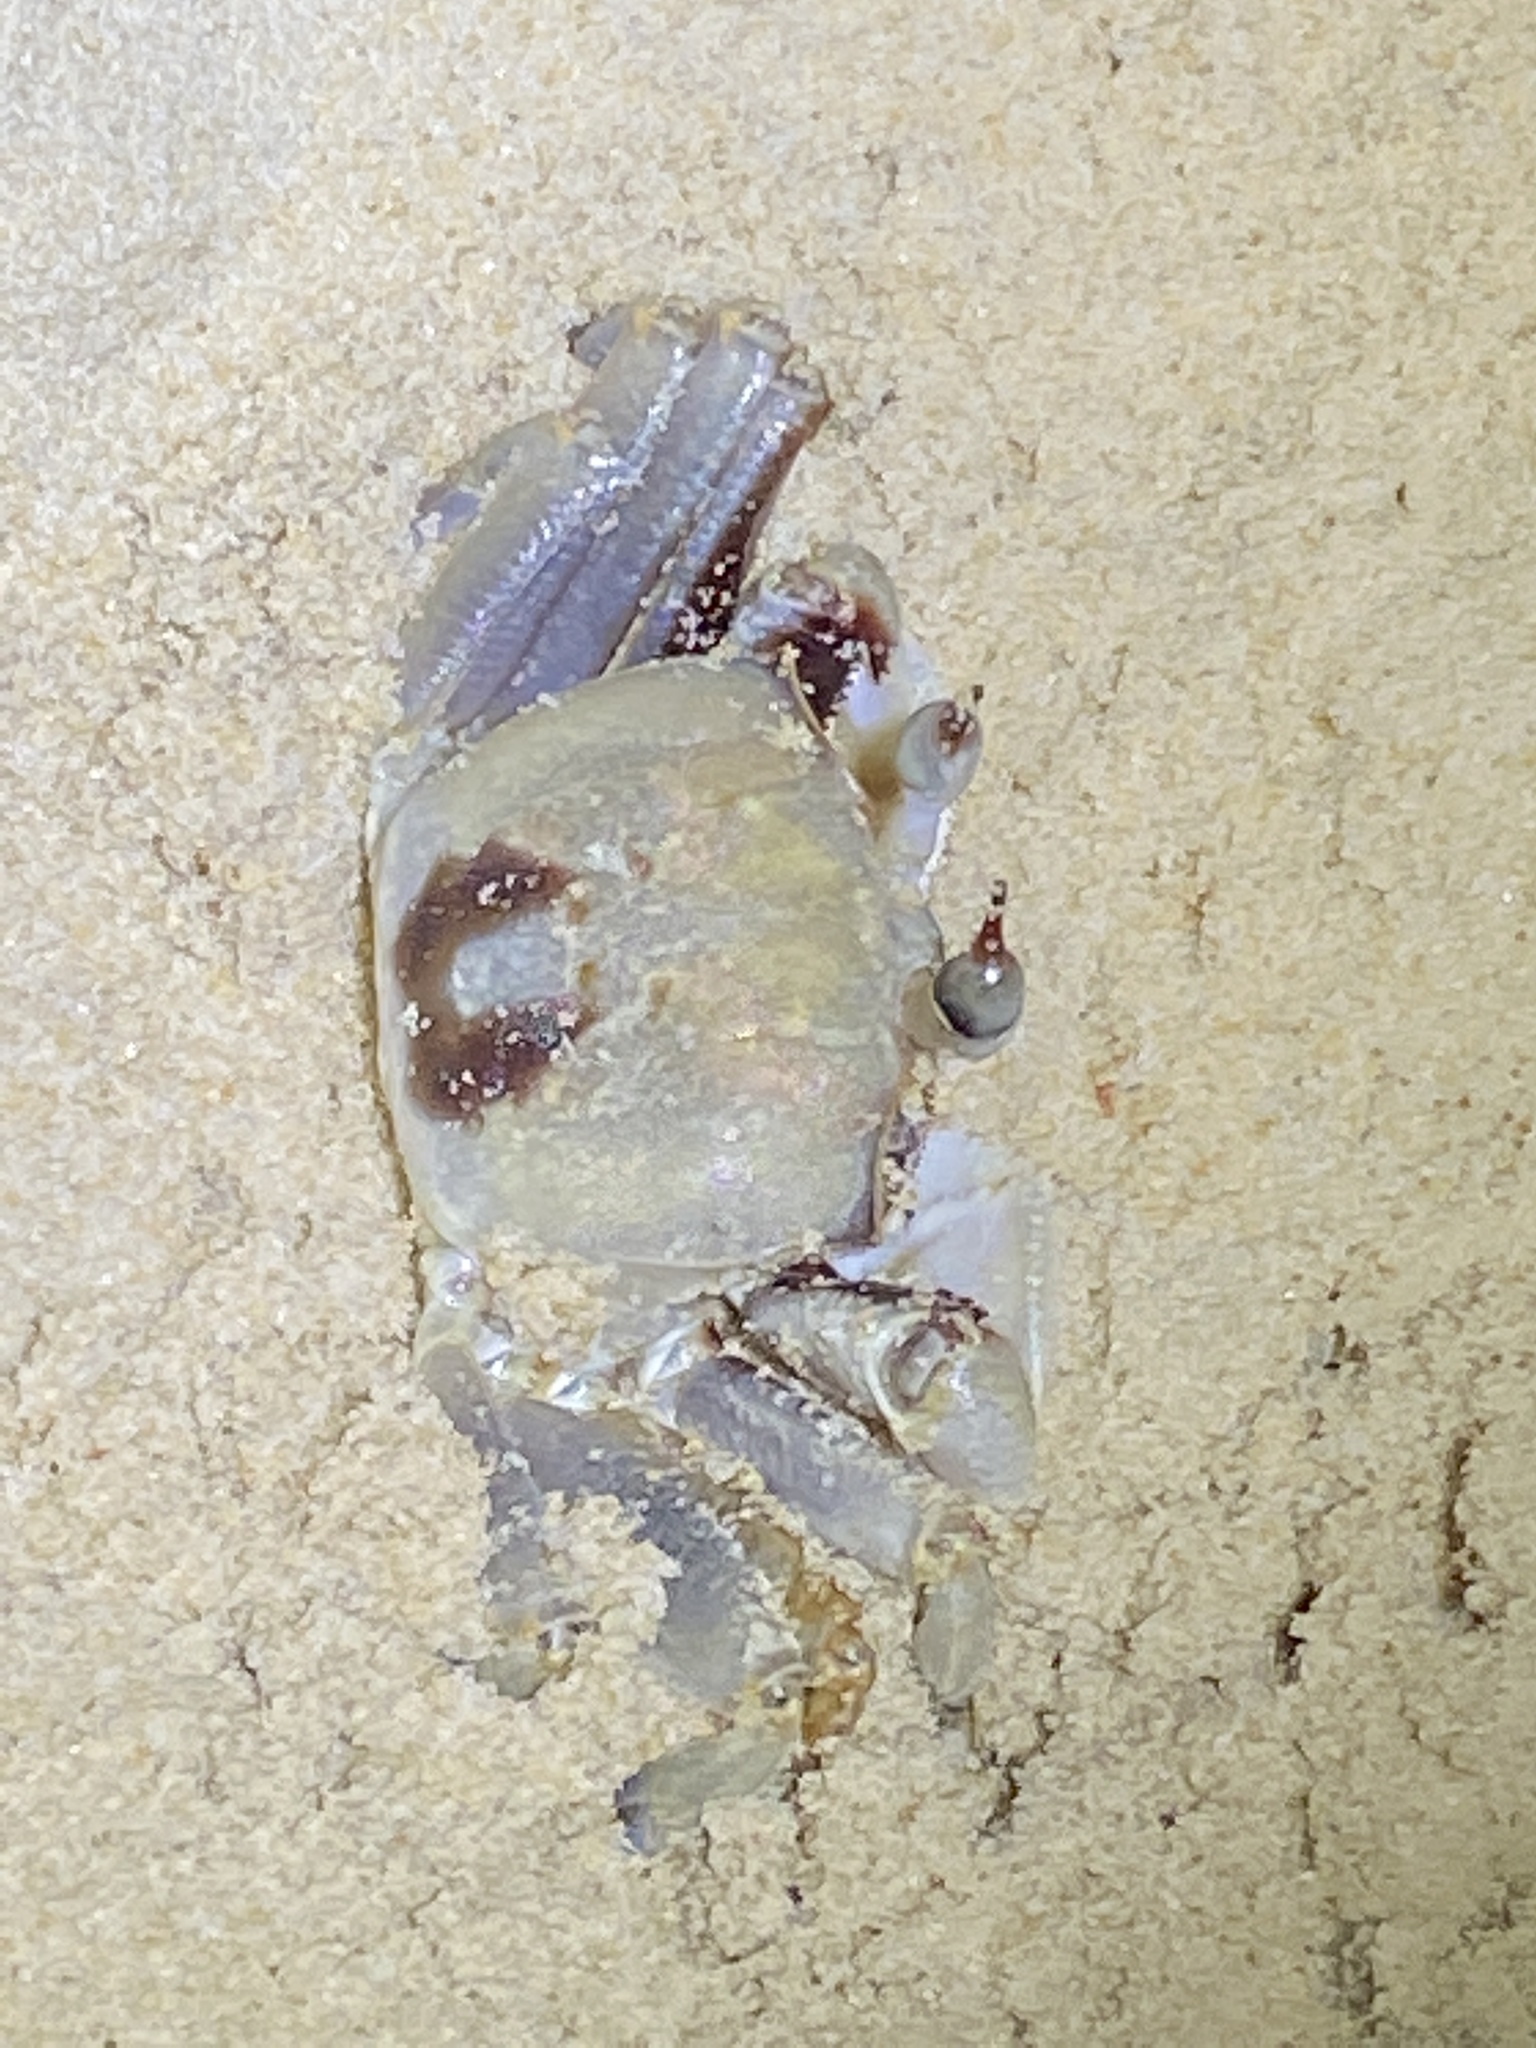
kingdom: Animalia
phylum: Arthropoda
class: Malacostraca
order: Decapoda
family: Ocypodidae
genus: Ocypode
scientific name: Ocypode ceratophthalmus
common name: Indo-pacific ghost crab
